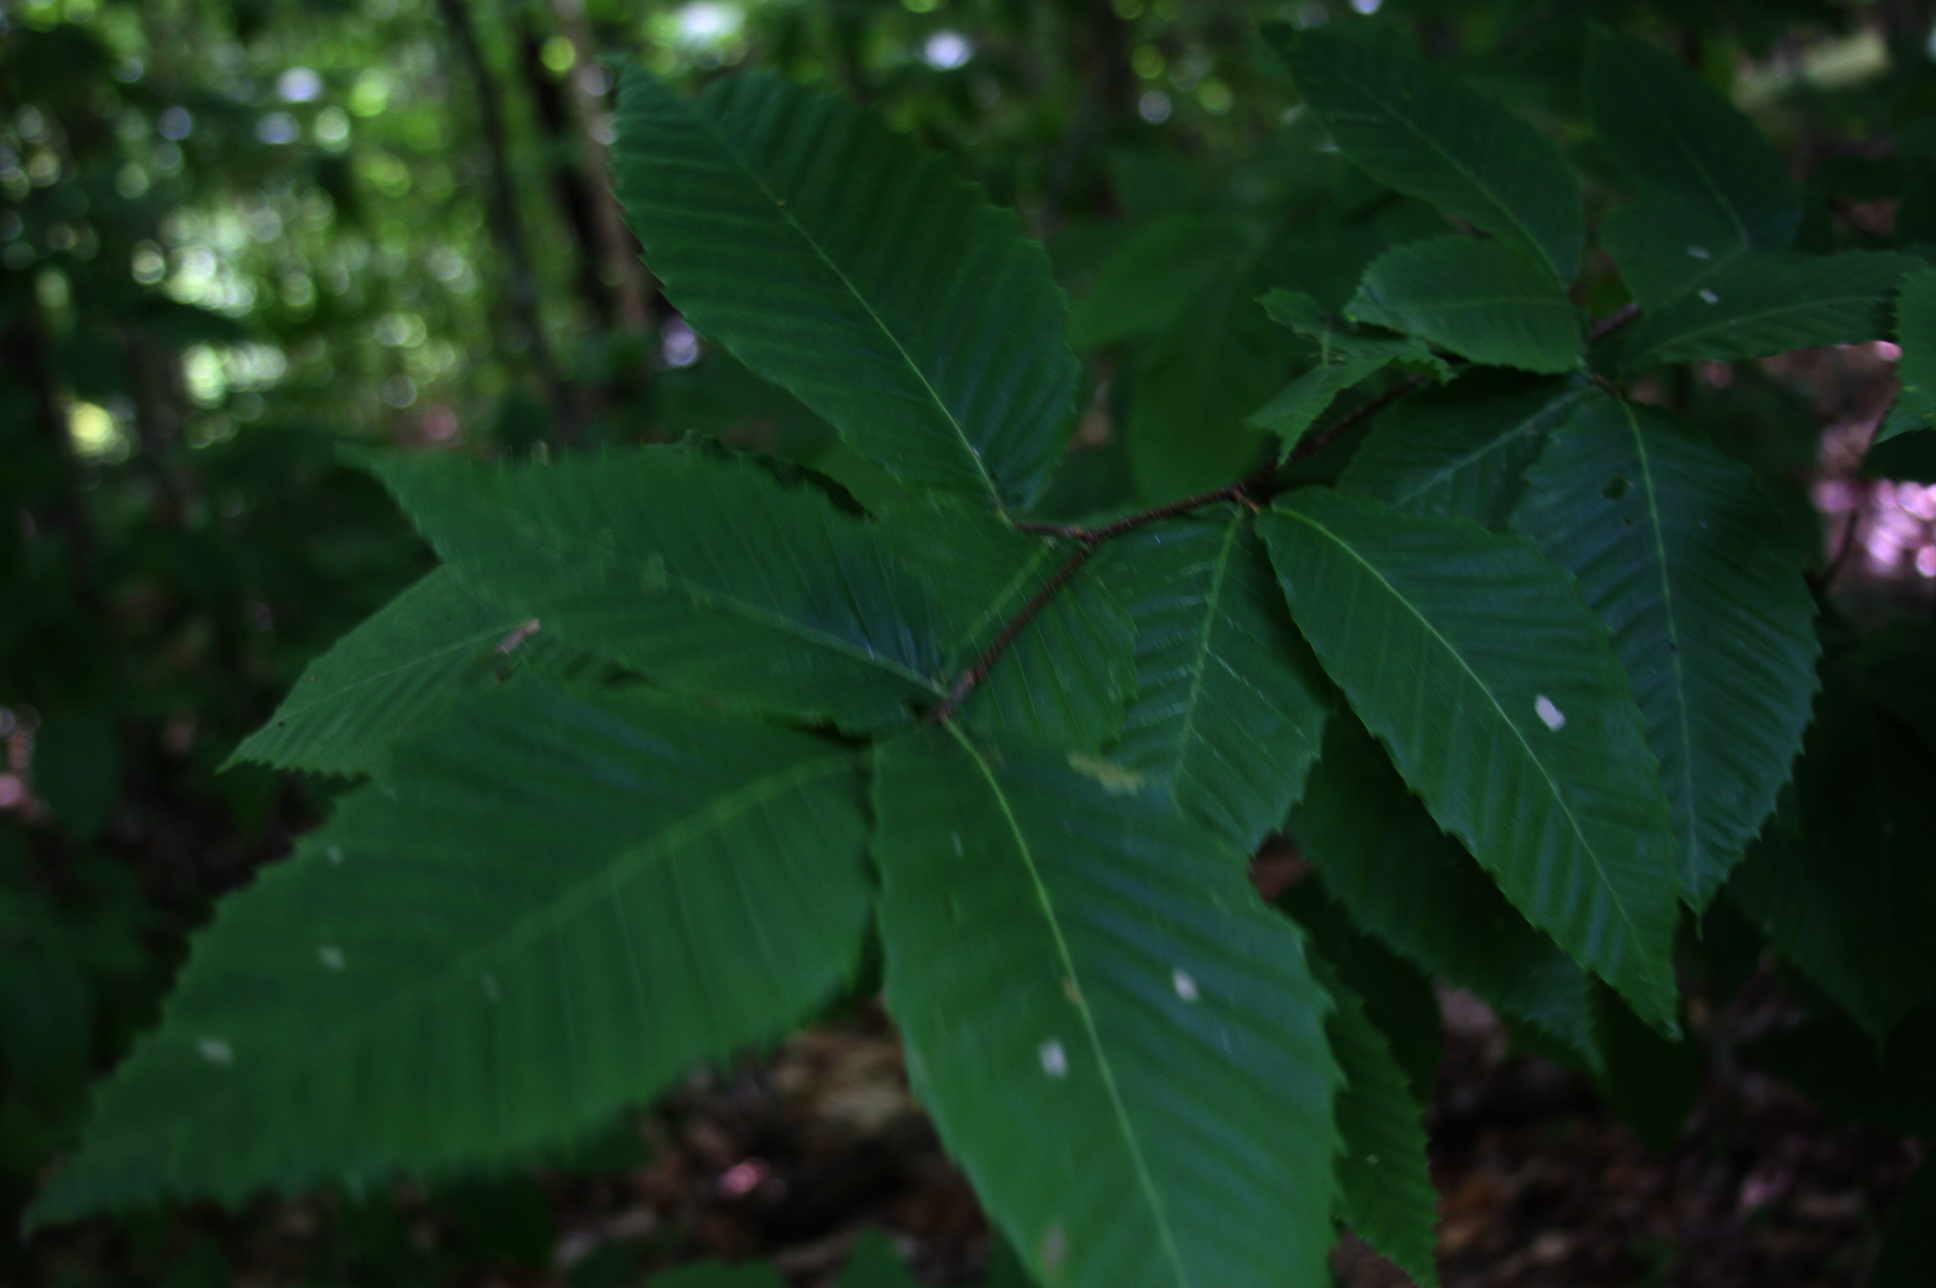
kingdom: Plantae
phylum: Tracheophyta
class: Magnoliopsida
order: Fagales
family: Fagaceae
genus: Fagus
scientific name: Fagus grandifolia
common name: American beech
